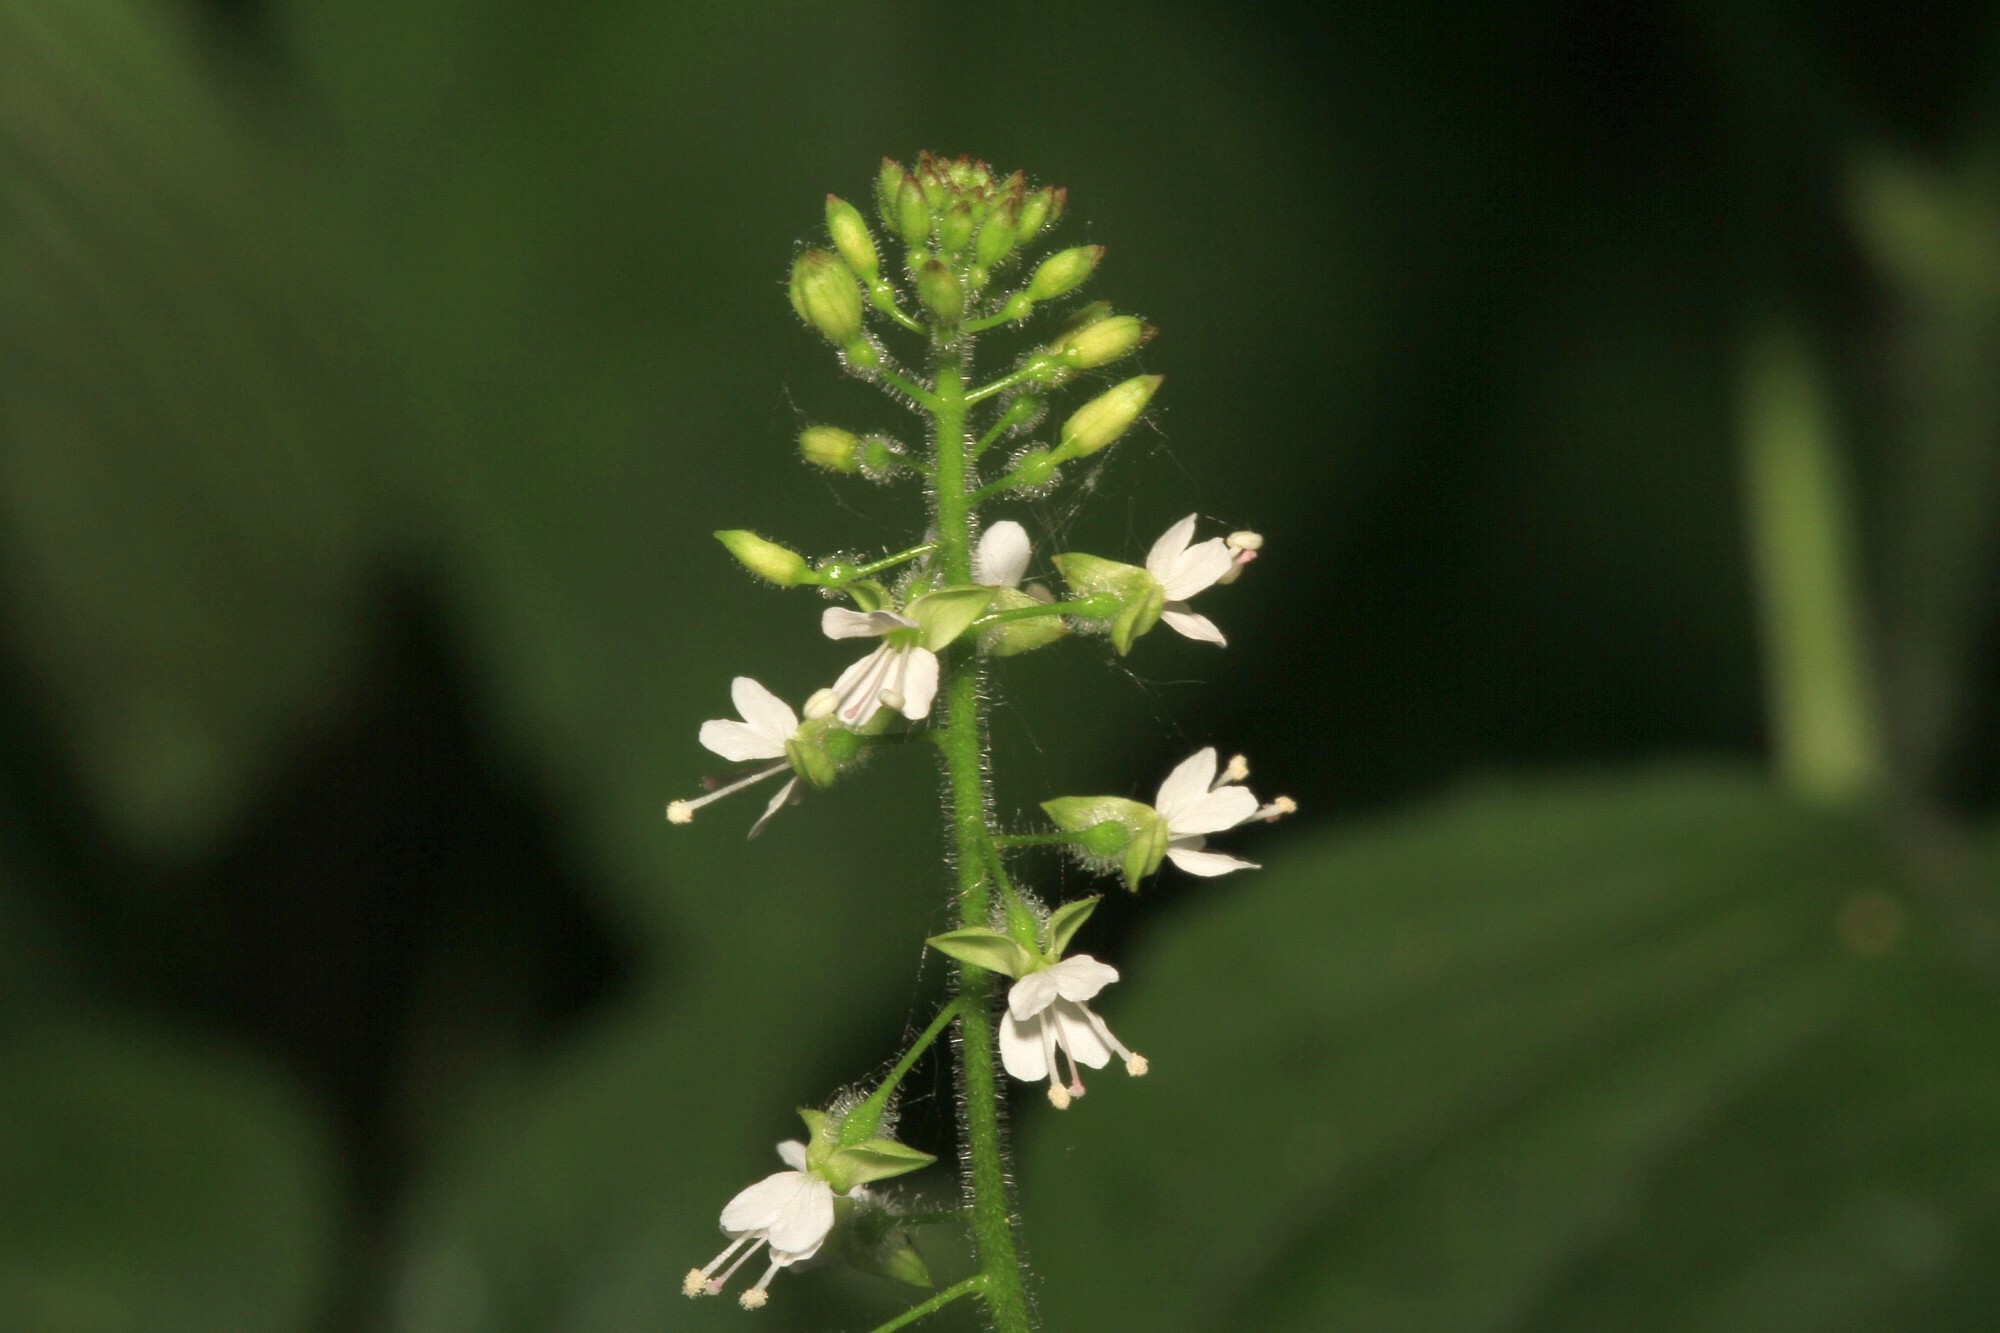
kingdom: Plantae
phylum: Tracheophyta
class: Magnoliopsida
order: Myrtales
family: Onagraceae
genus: Circaea
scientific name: Circaea lutetiana
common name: Enchanter's-nightshade
